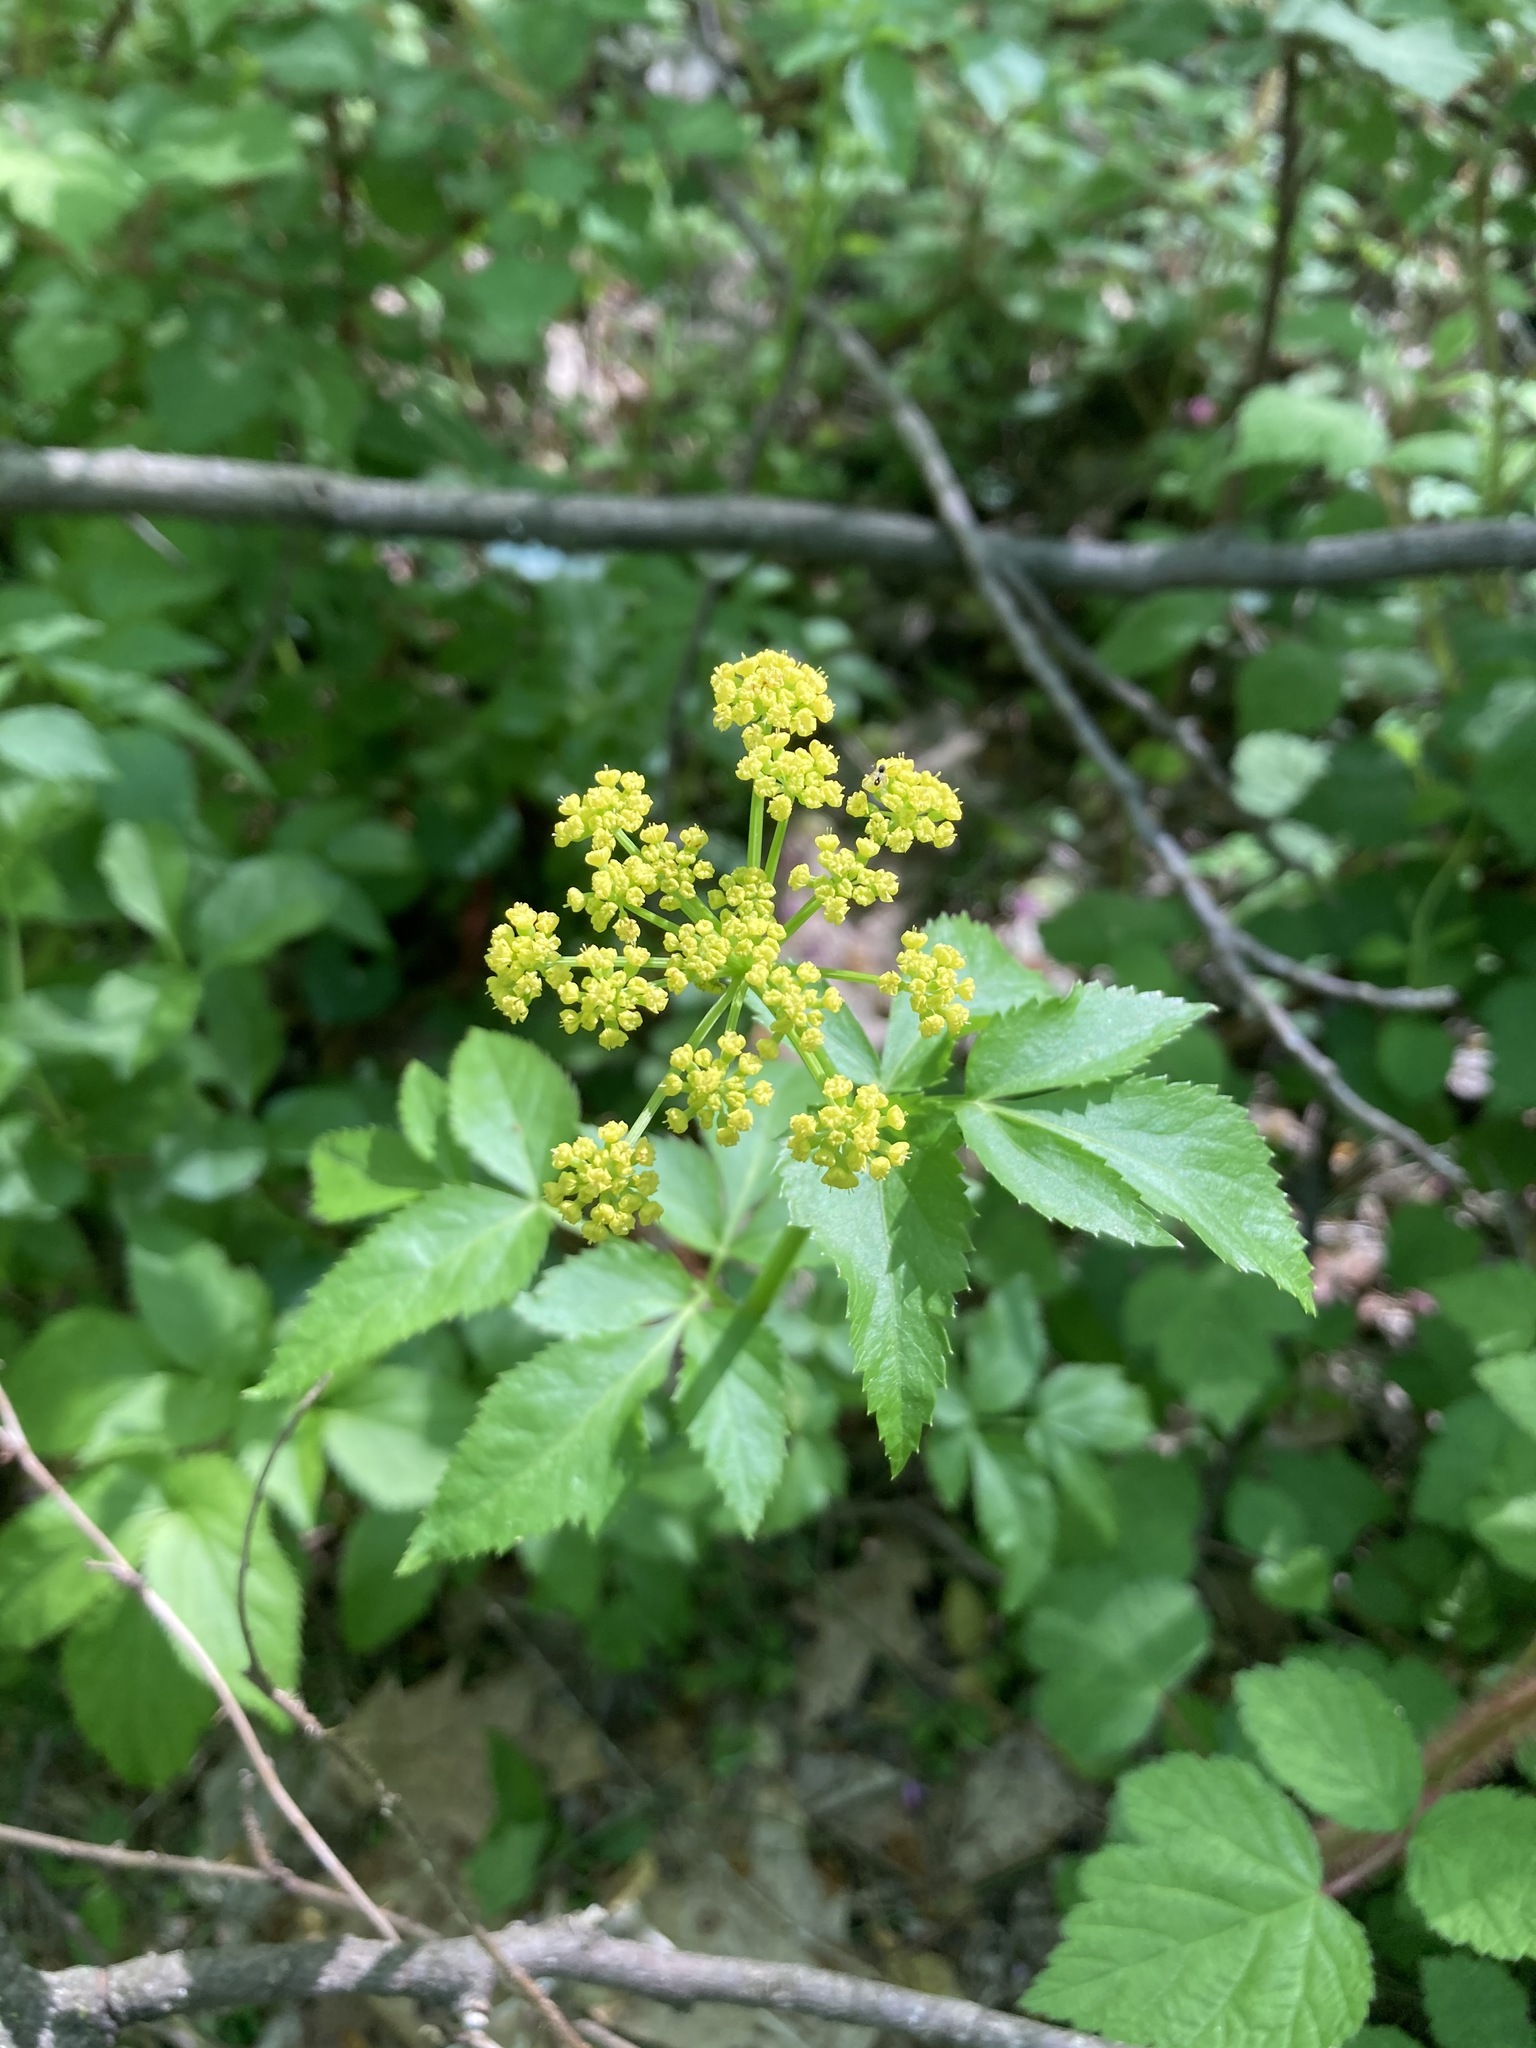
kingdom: Plantae
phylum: Tracheophyta
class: Magnoliopsida
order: Apiales
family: Apiaceae
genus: Zizia
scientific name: Zizia aurea
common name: Golden alexanders
